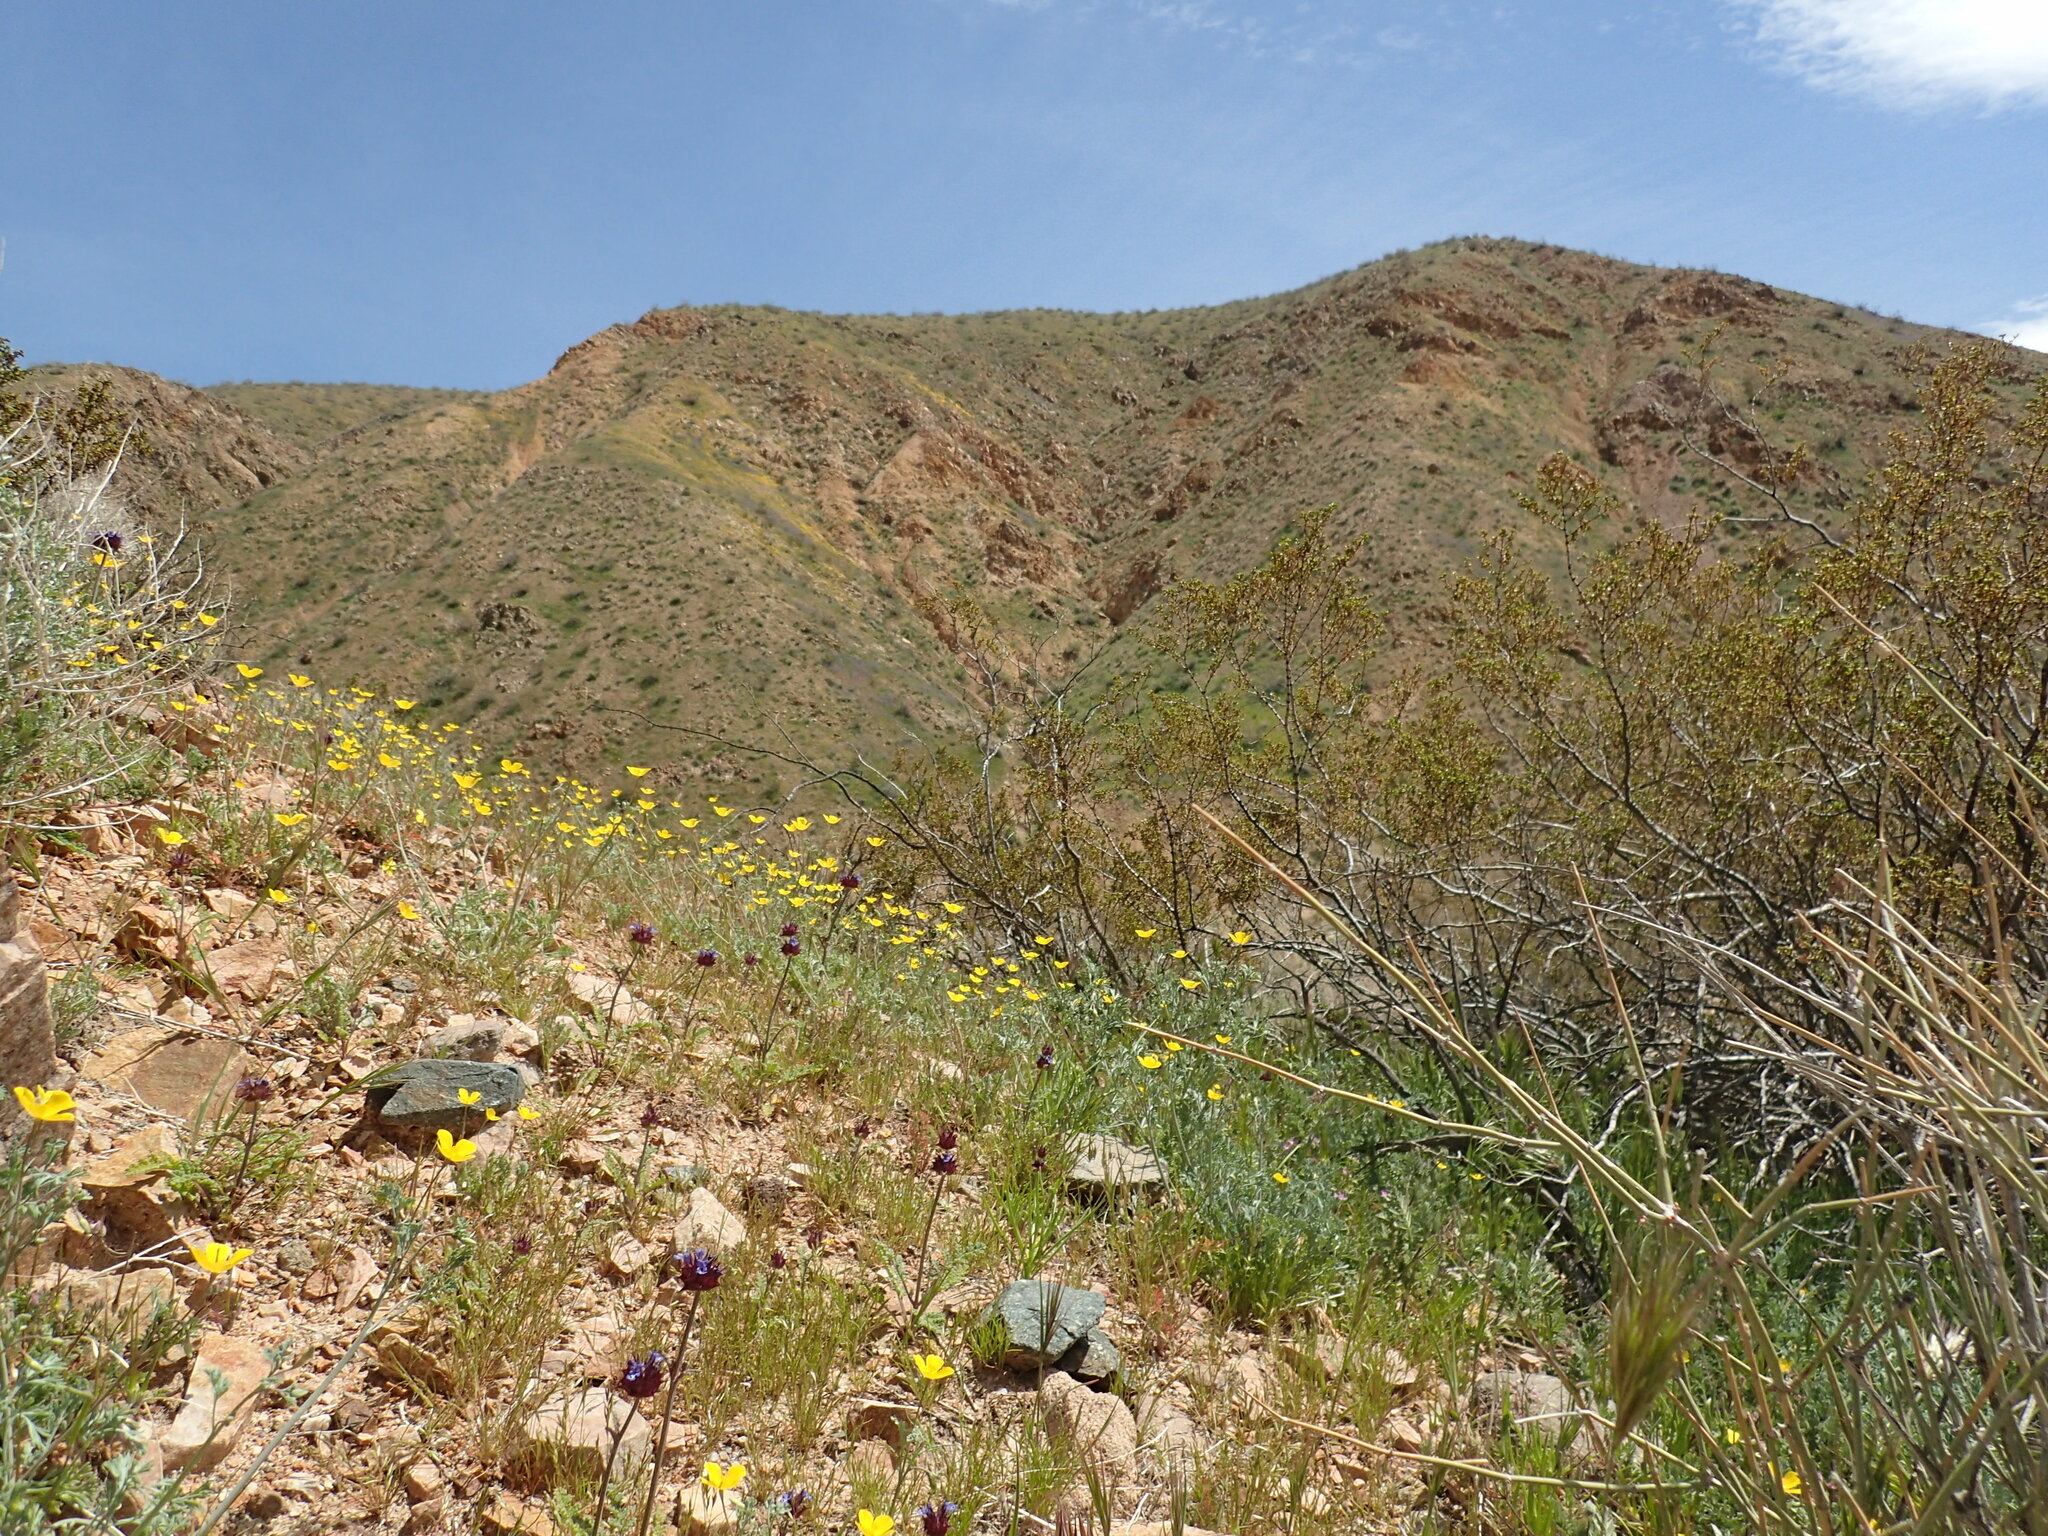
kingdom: Plantae
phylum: Tracheophyta
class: Magnoliopsida
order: Ranunculales
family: Papaveraceae
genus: Eschscholzia
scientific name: Eschscholzia minutiflora
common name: Small-flower california-poppy
